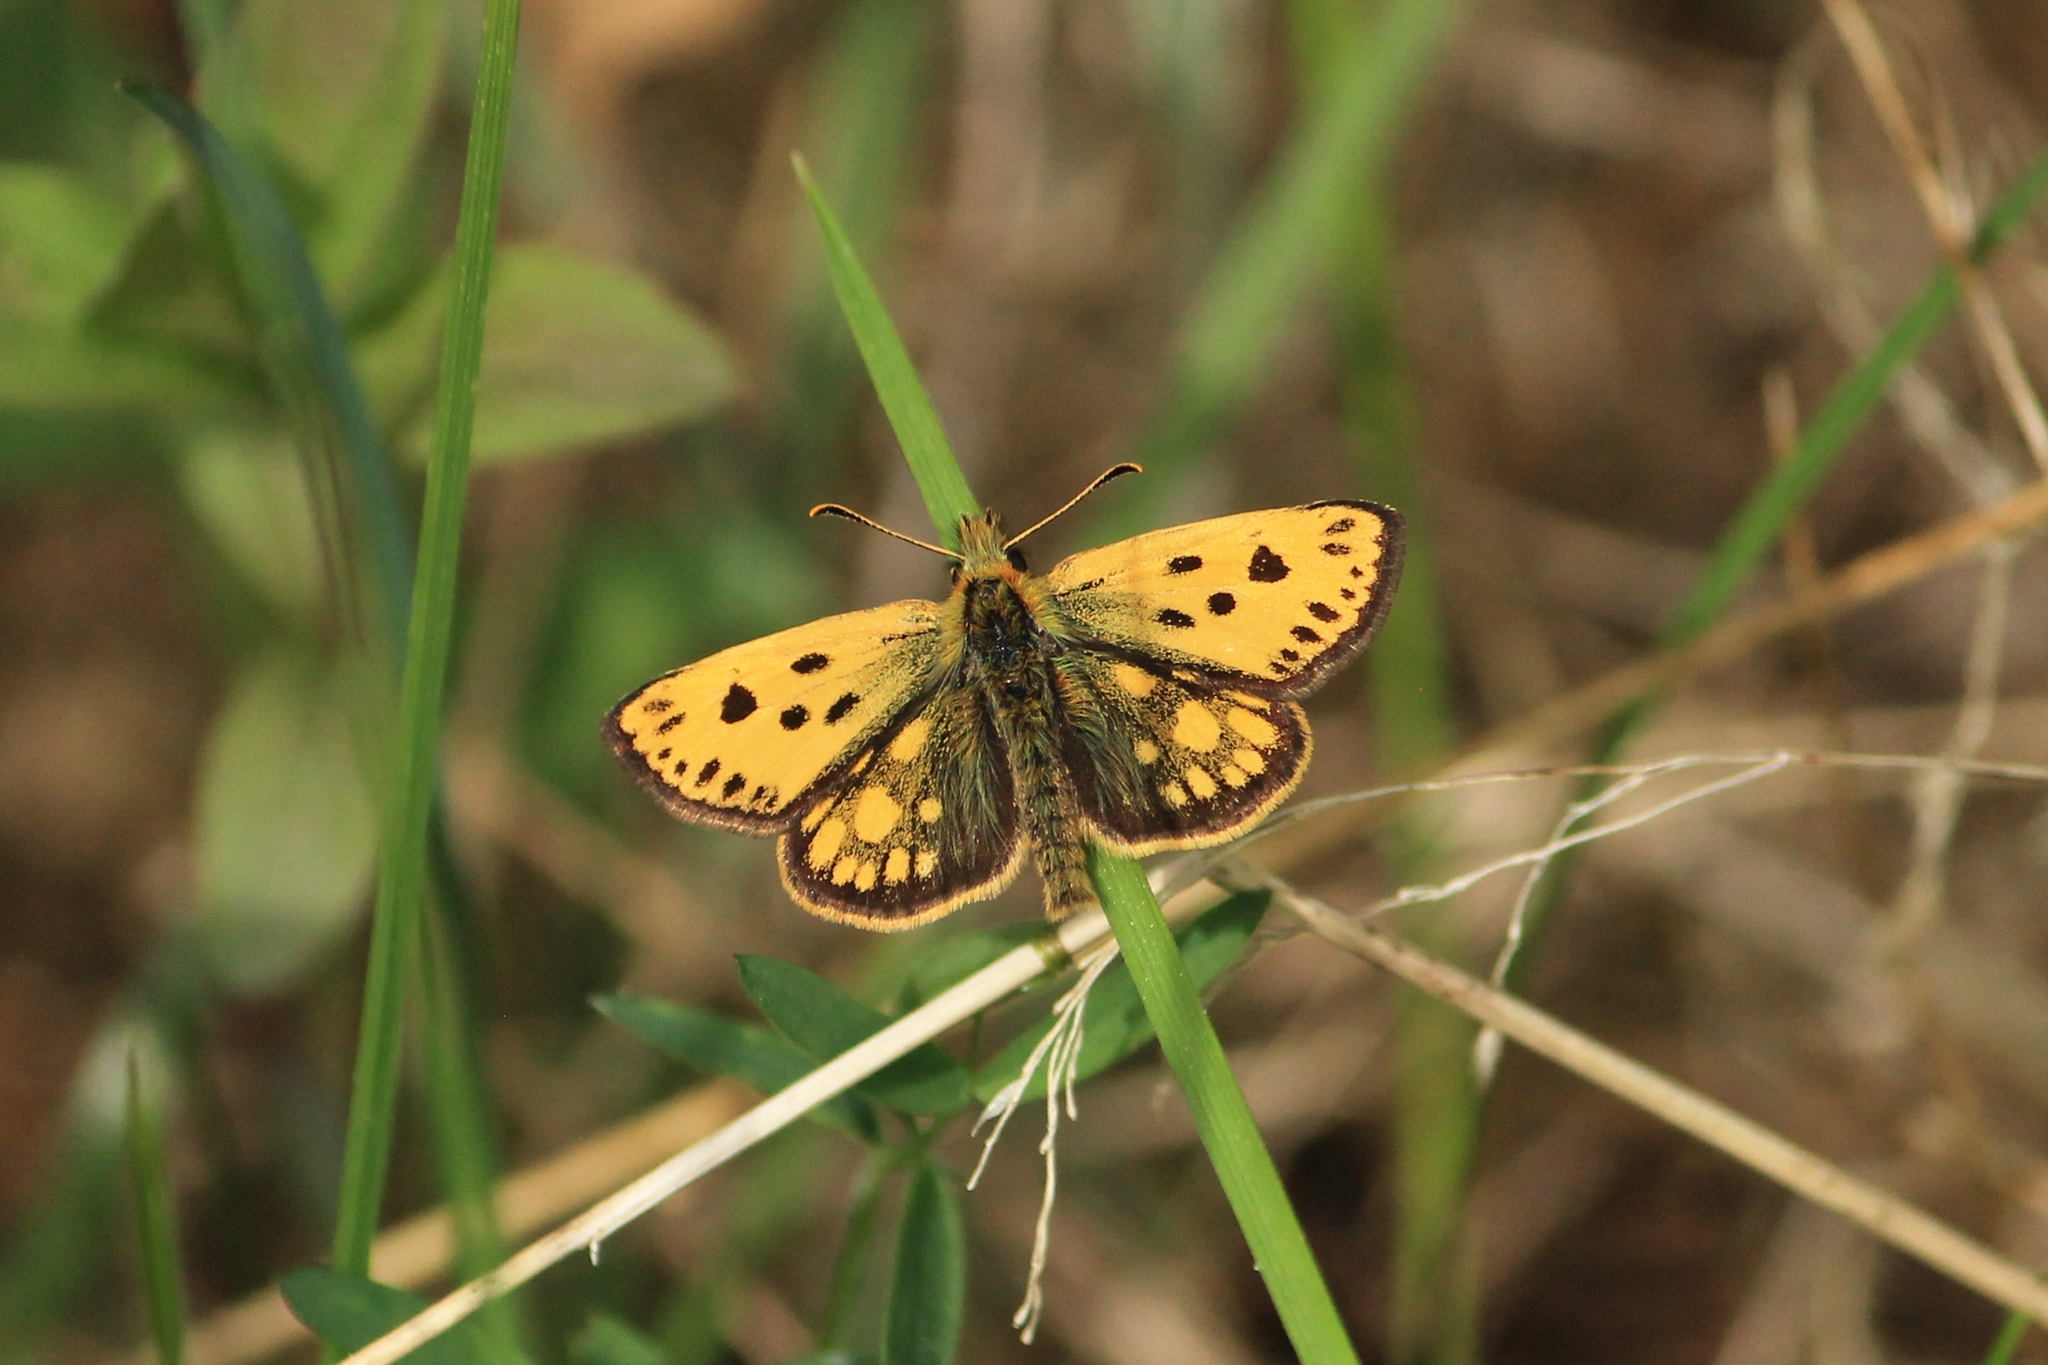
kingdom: Animalia
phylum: Arthropoda
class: Insecta
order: Lepidoptera
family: Hesperiidae
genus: Carterocephalus
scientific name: Carterocephalus silvicola
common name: Northern chequered skipper
